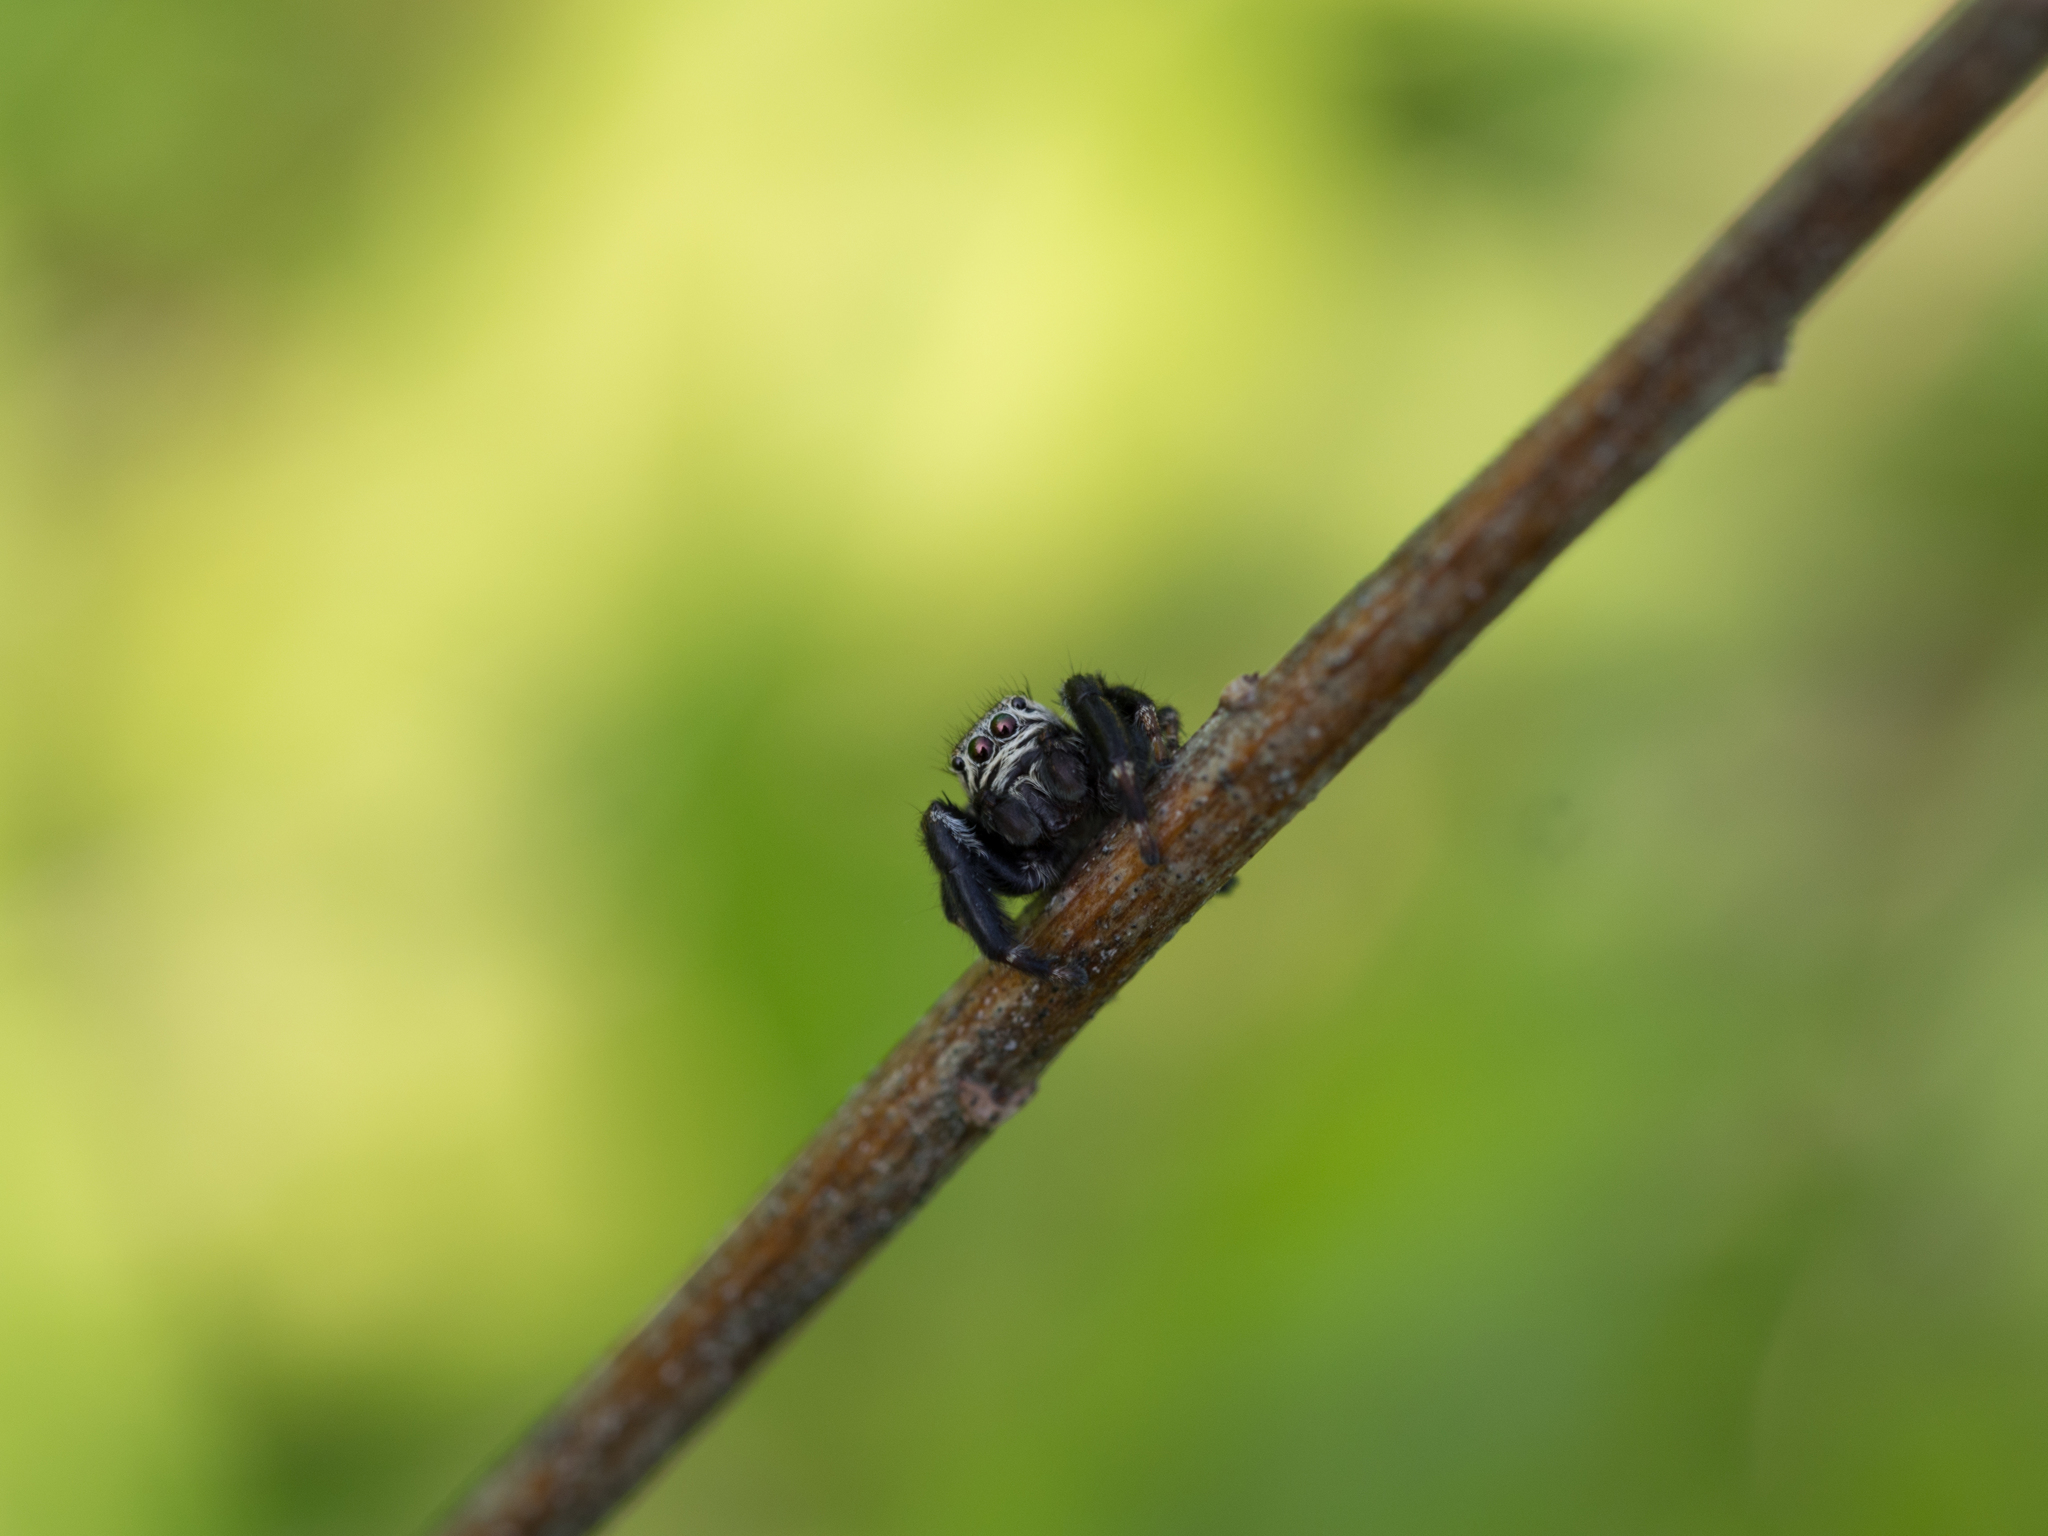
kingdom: Animalia
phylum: Arthropoda
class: Arachnida
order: Araneae
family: Salticidae
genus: Evarcha
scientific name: Evarcha arcuata
